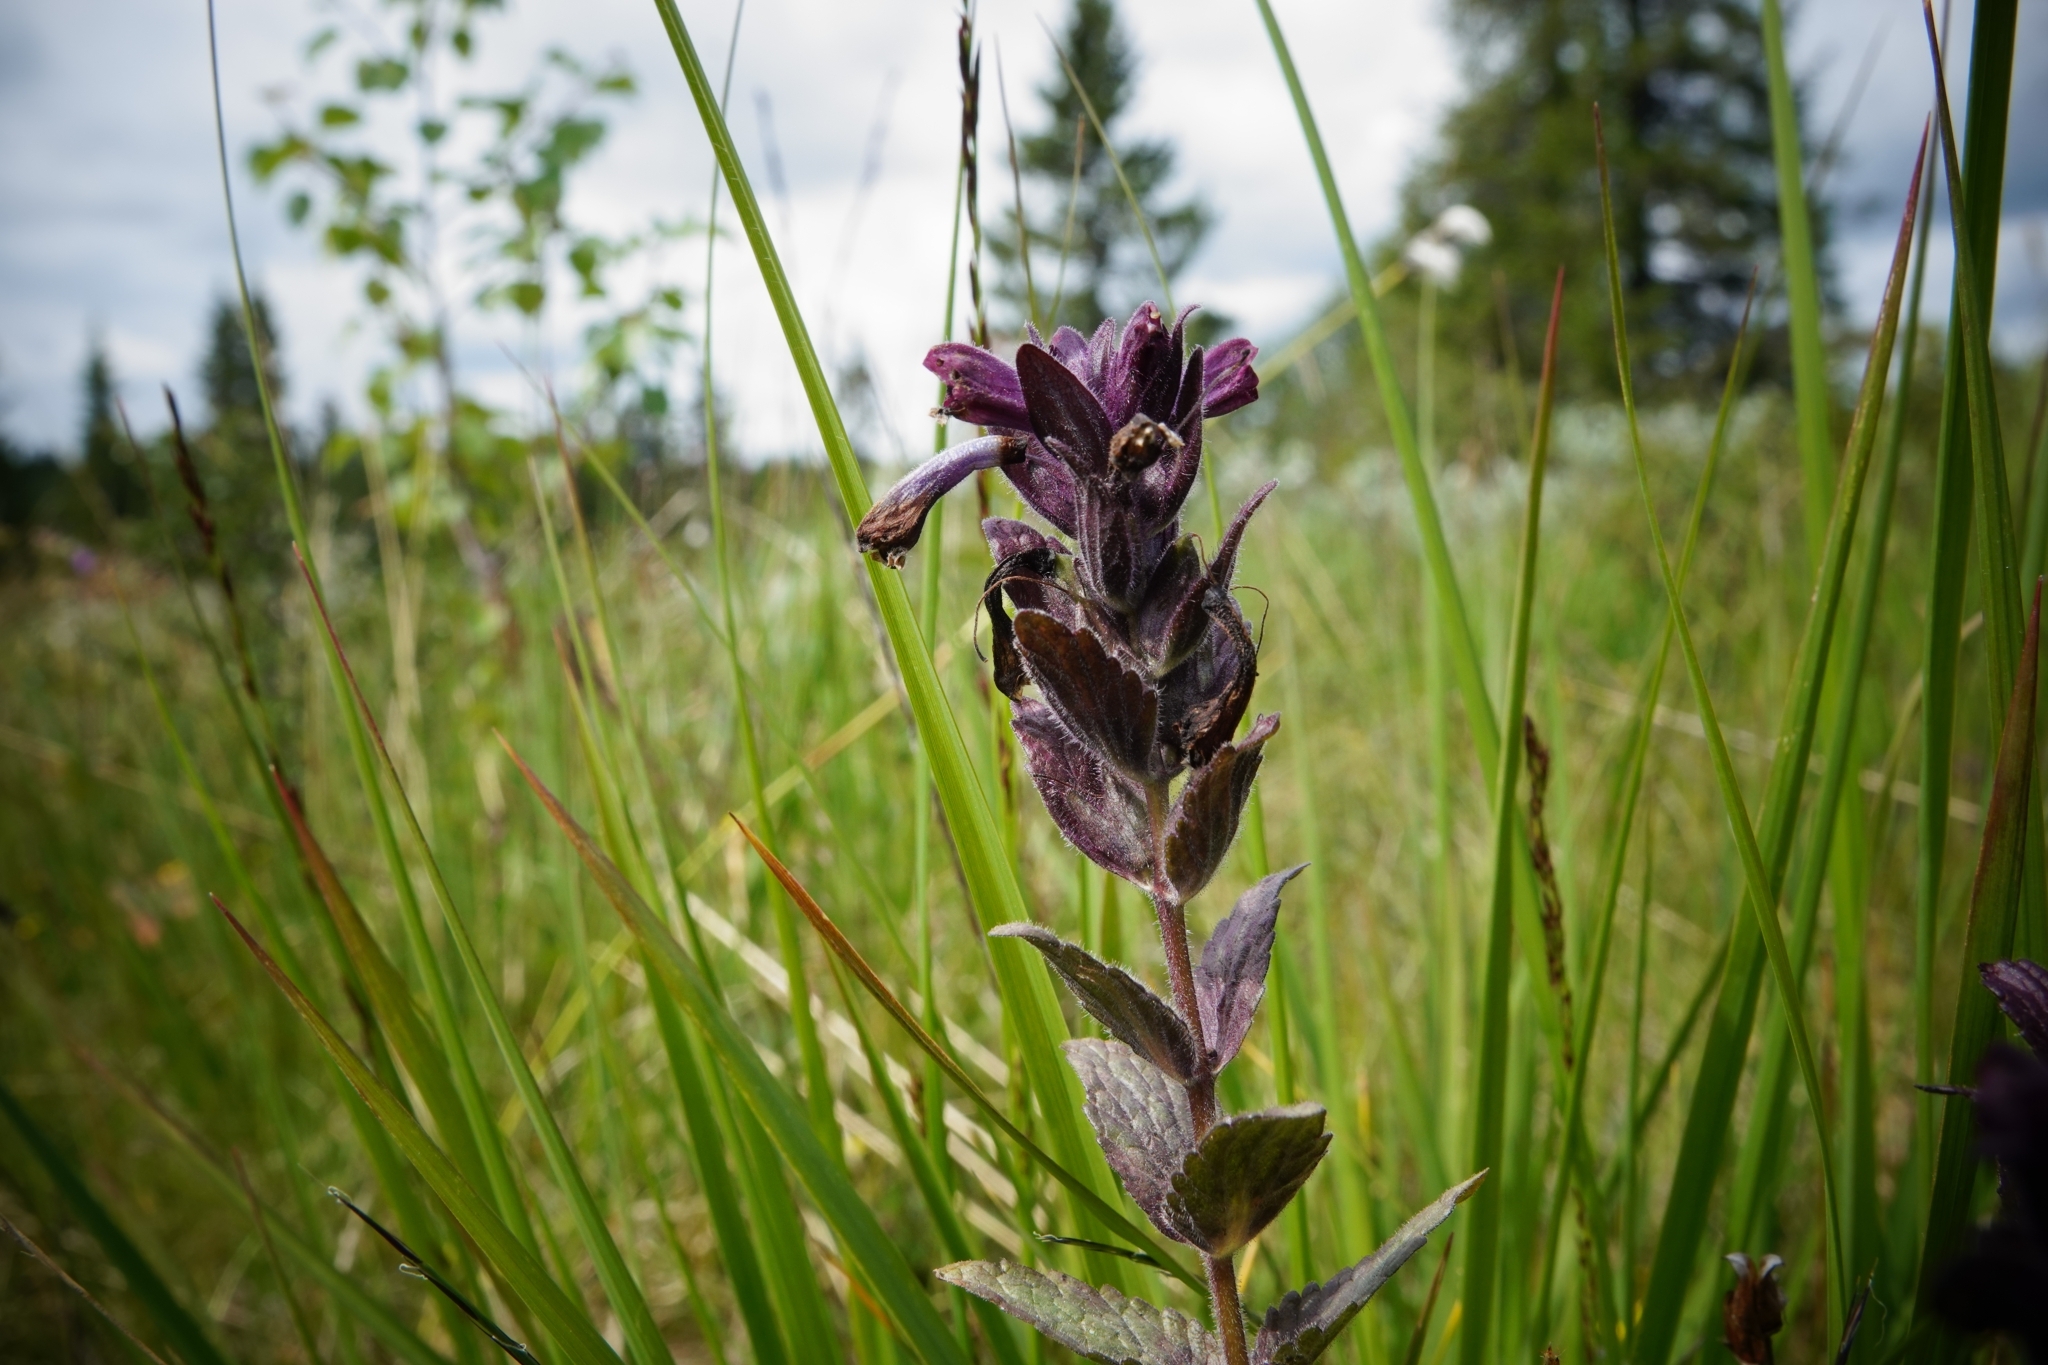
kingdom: Plantae
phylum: Tracheophyta
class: Magnoliopsida
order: Lamiales
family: Orobanchaceae
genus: Bartsia
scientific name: Bartsia alpina
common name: Alpine bartsia
